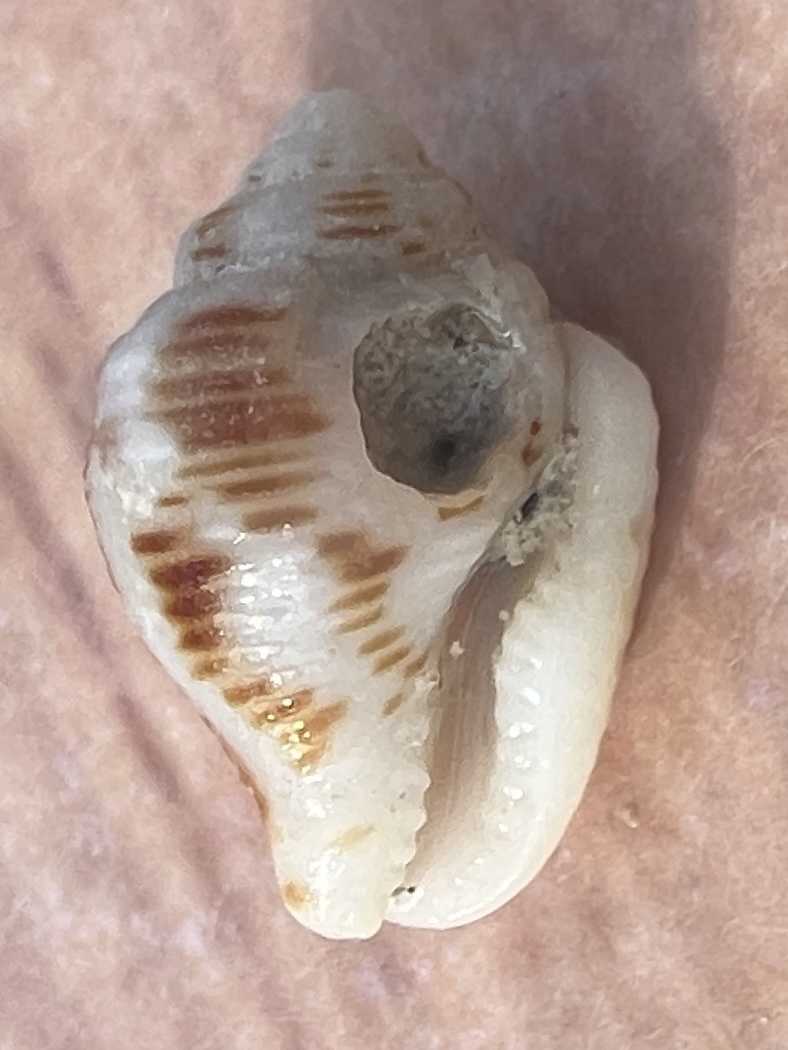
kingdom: Animalia
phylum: Mollusca
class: Gastropoda
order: Neogastropoda
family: Columbellidae
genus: Columbella
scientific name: Columbella mercatoria
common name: West indian dovesnail
